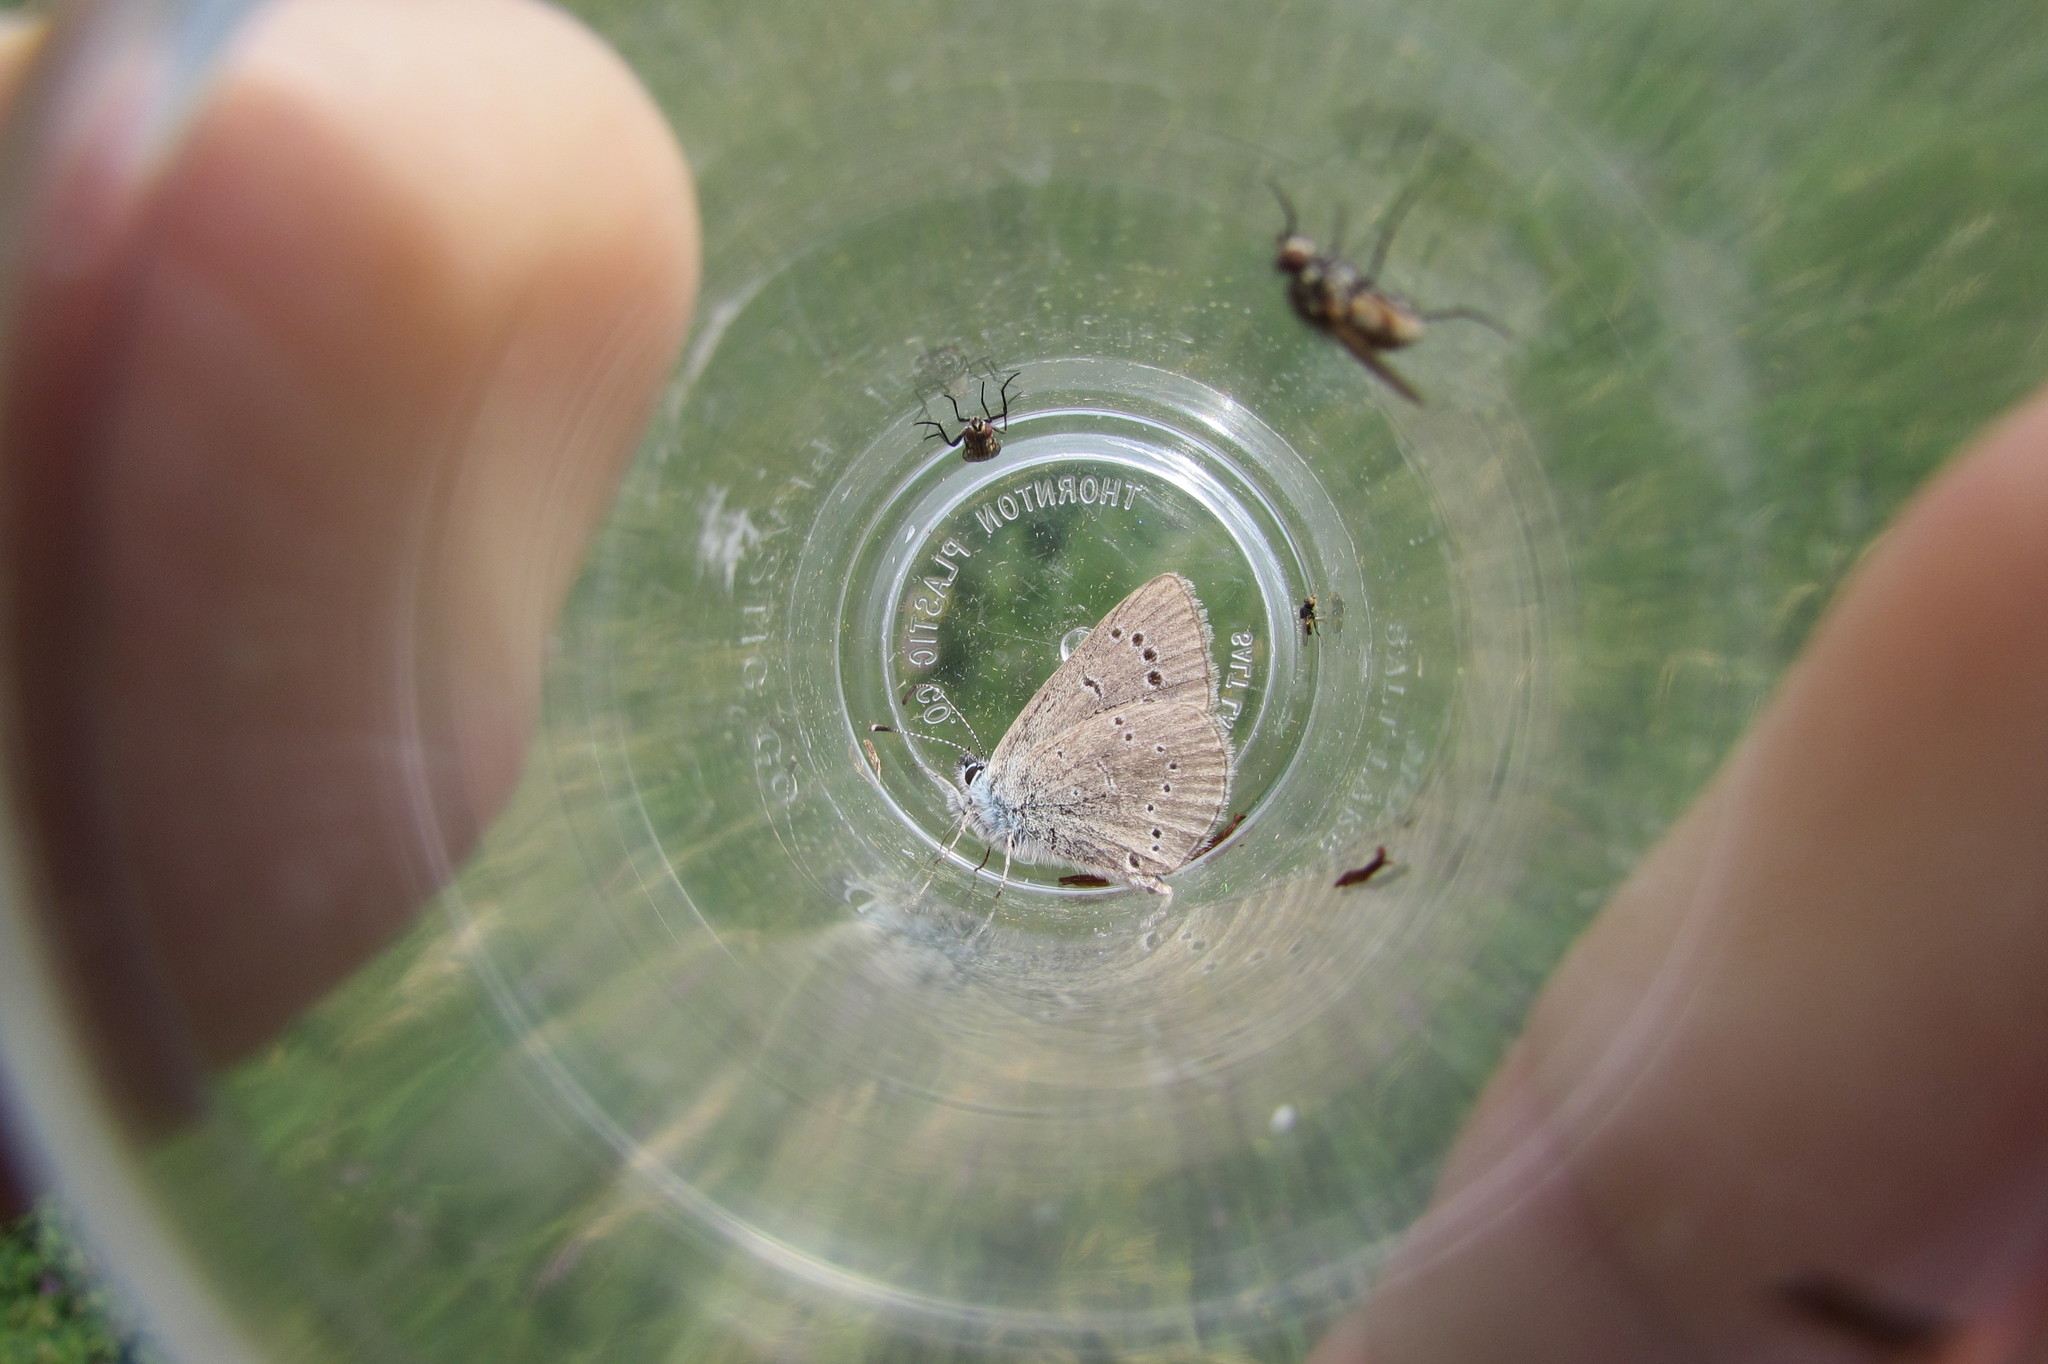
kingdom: Animalia
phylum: Arthropoda
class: Insecta
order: Lepidoptera
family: Lycaenidae
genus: Glaucopsyche
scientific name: Glaucopsyche lygdamus
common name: Silvery blue
